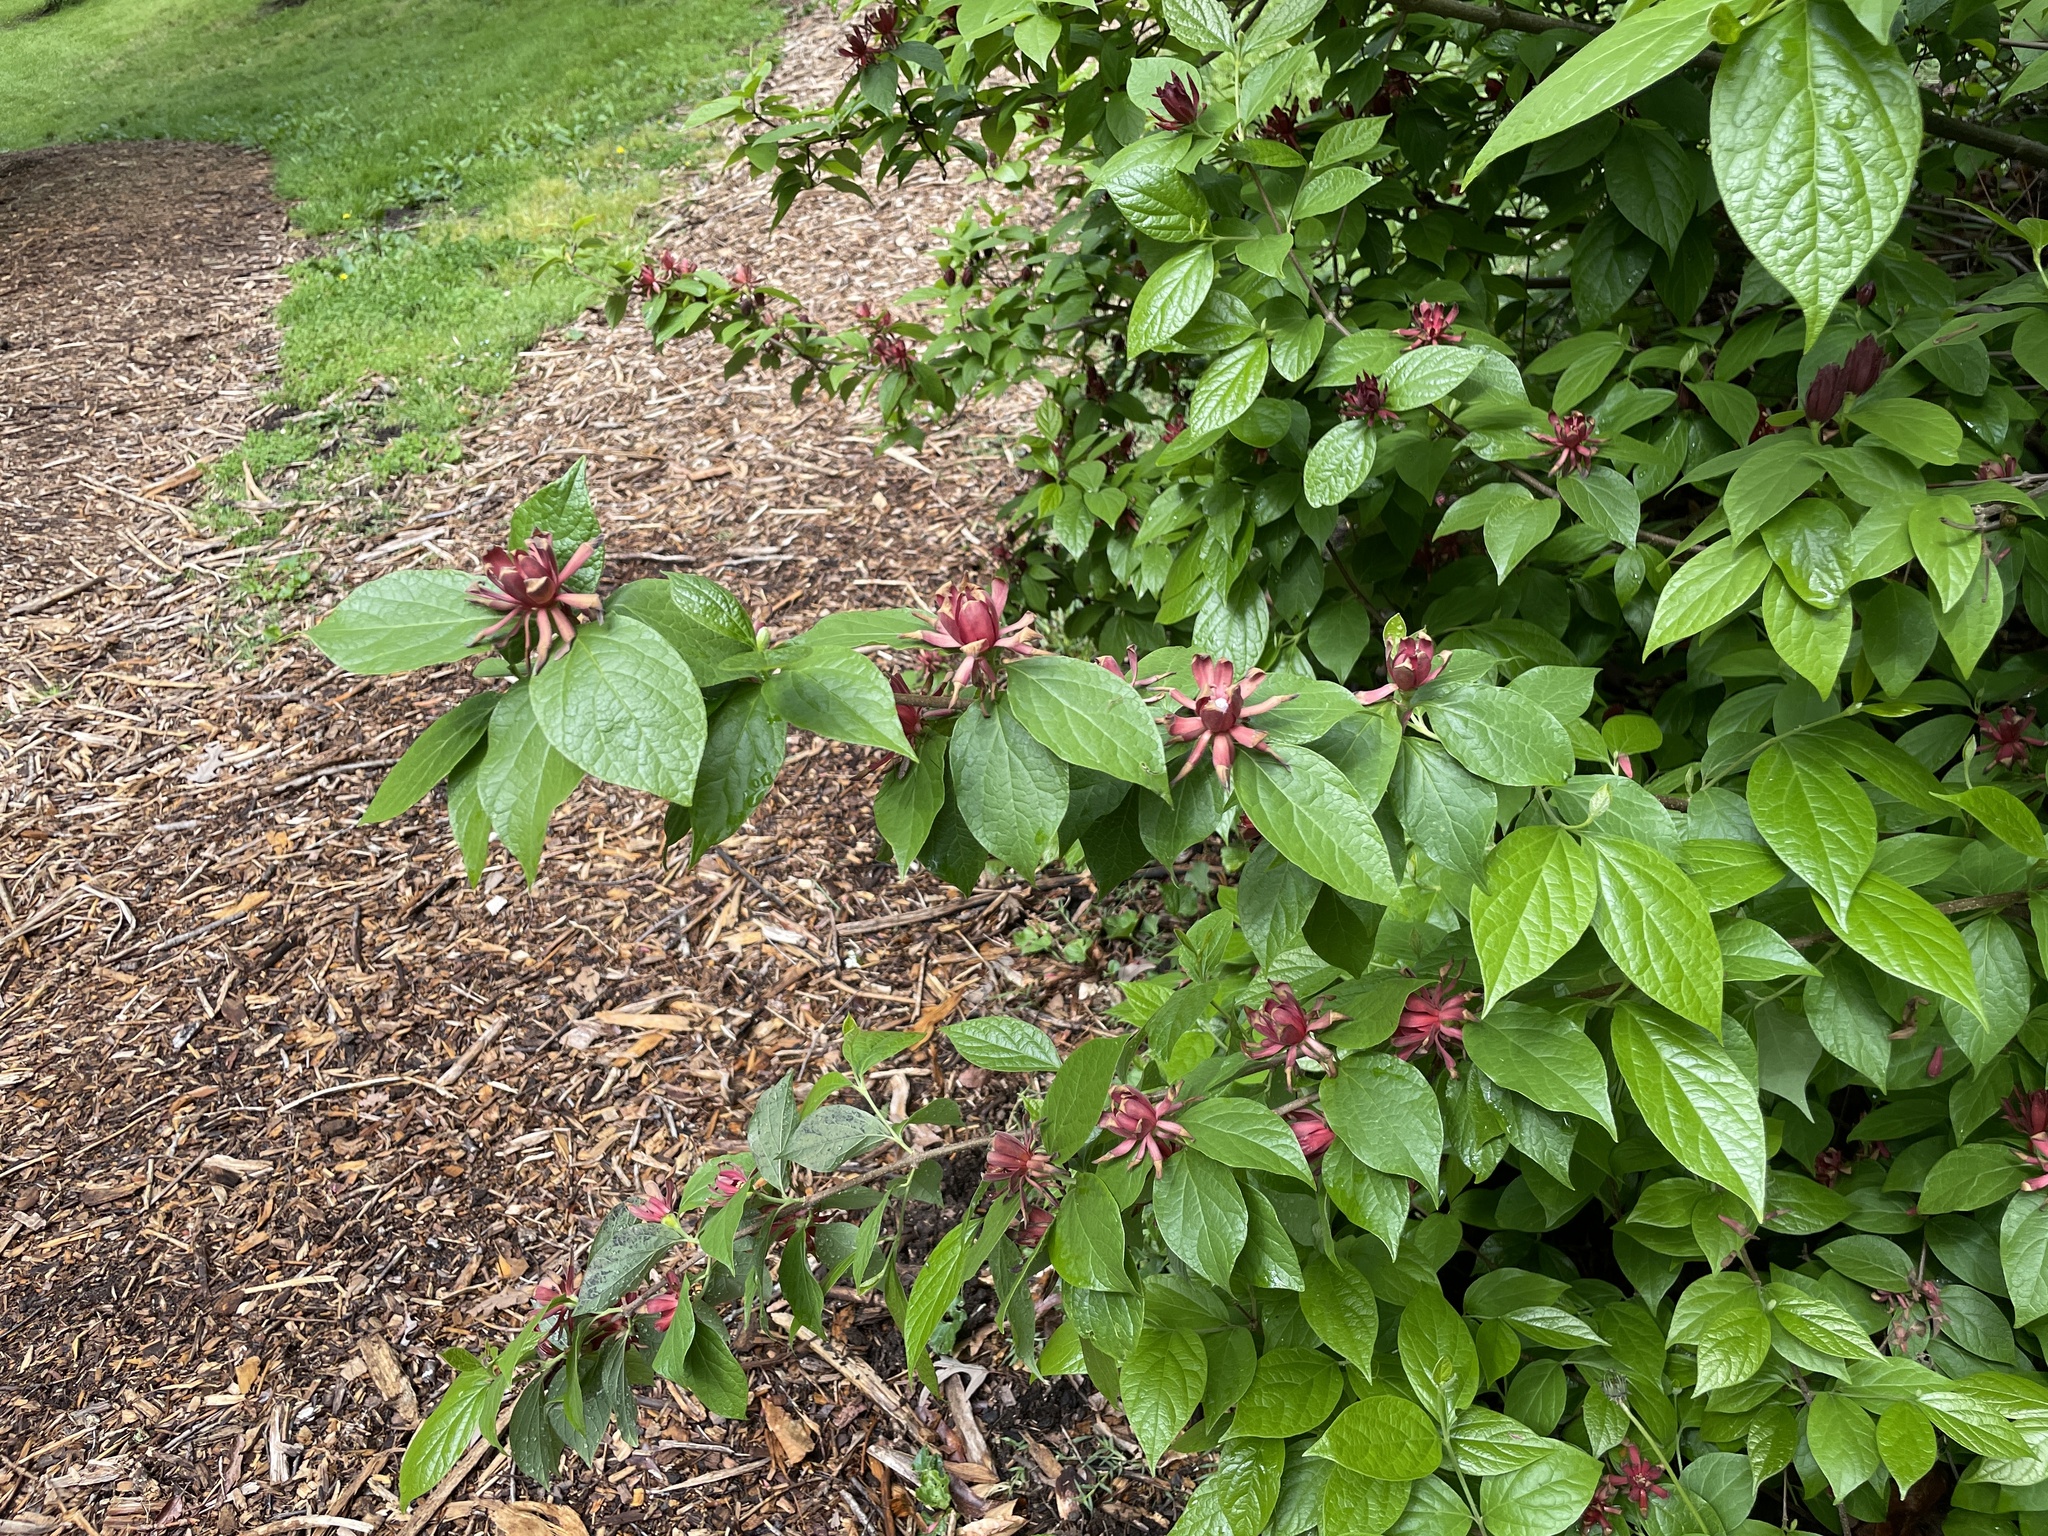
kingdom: Plantae
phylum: Tracheophyta
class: Magnoliopsida
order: Laurales
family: Calycanthaceae
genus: Calycanthus
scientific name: Calycanthus floridus
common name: Carolina-allspice
